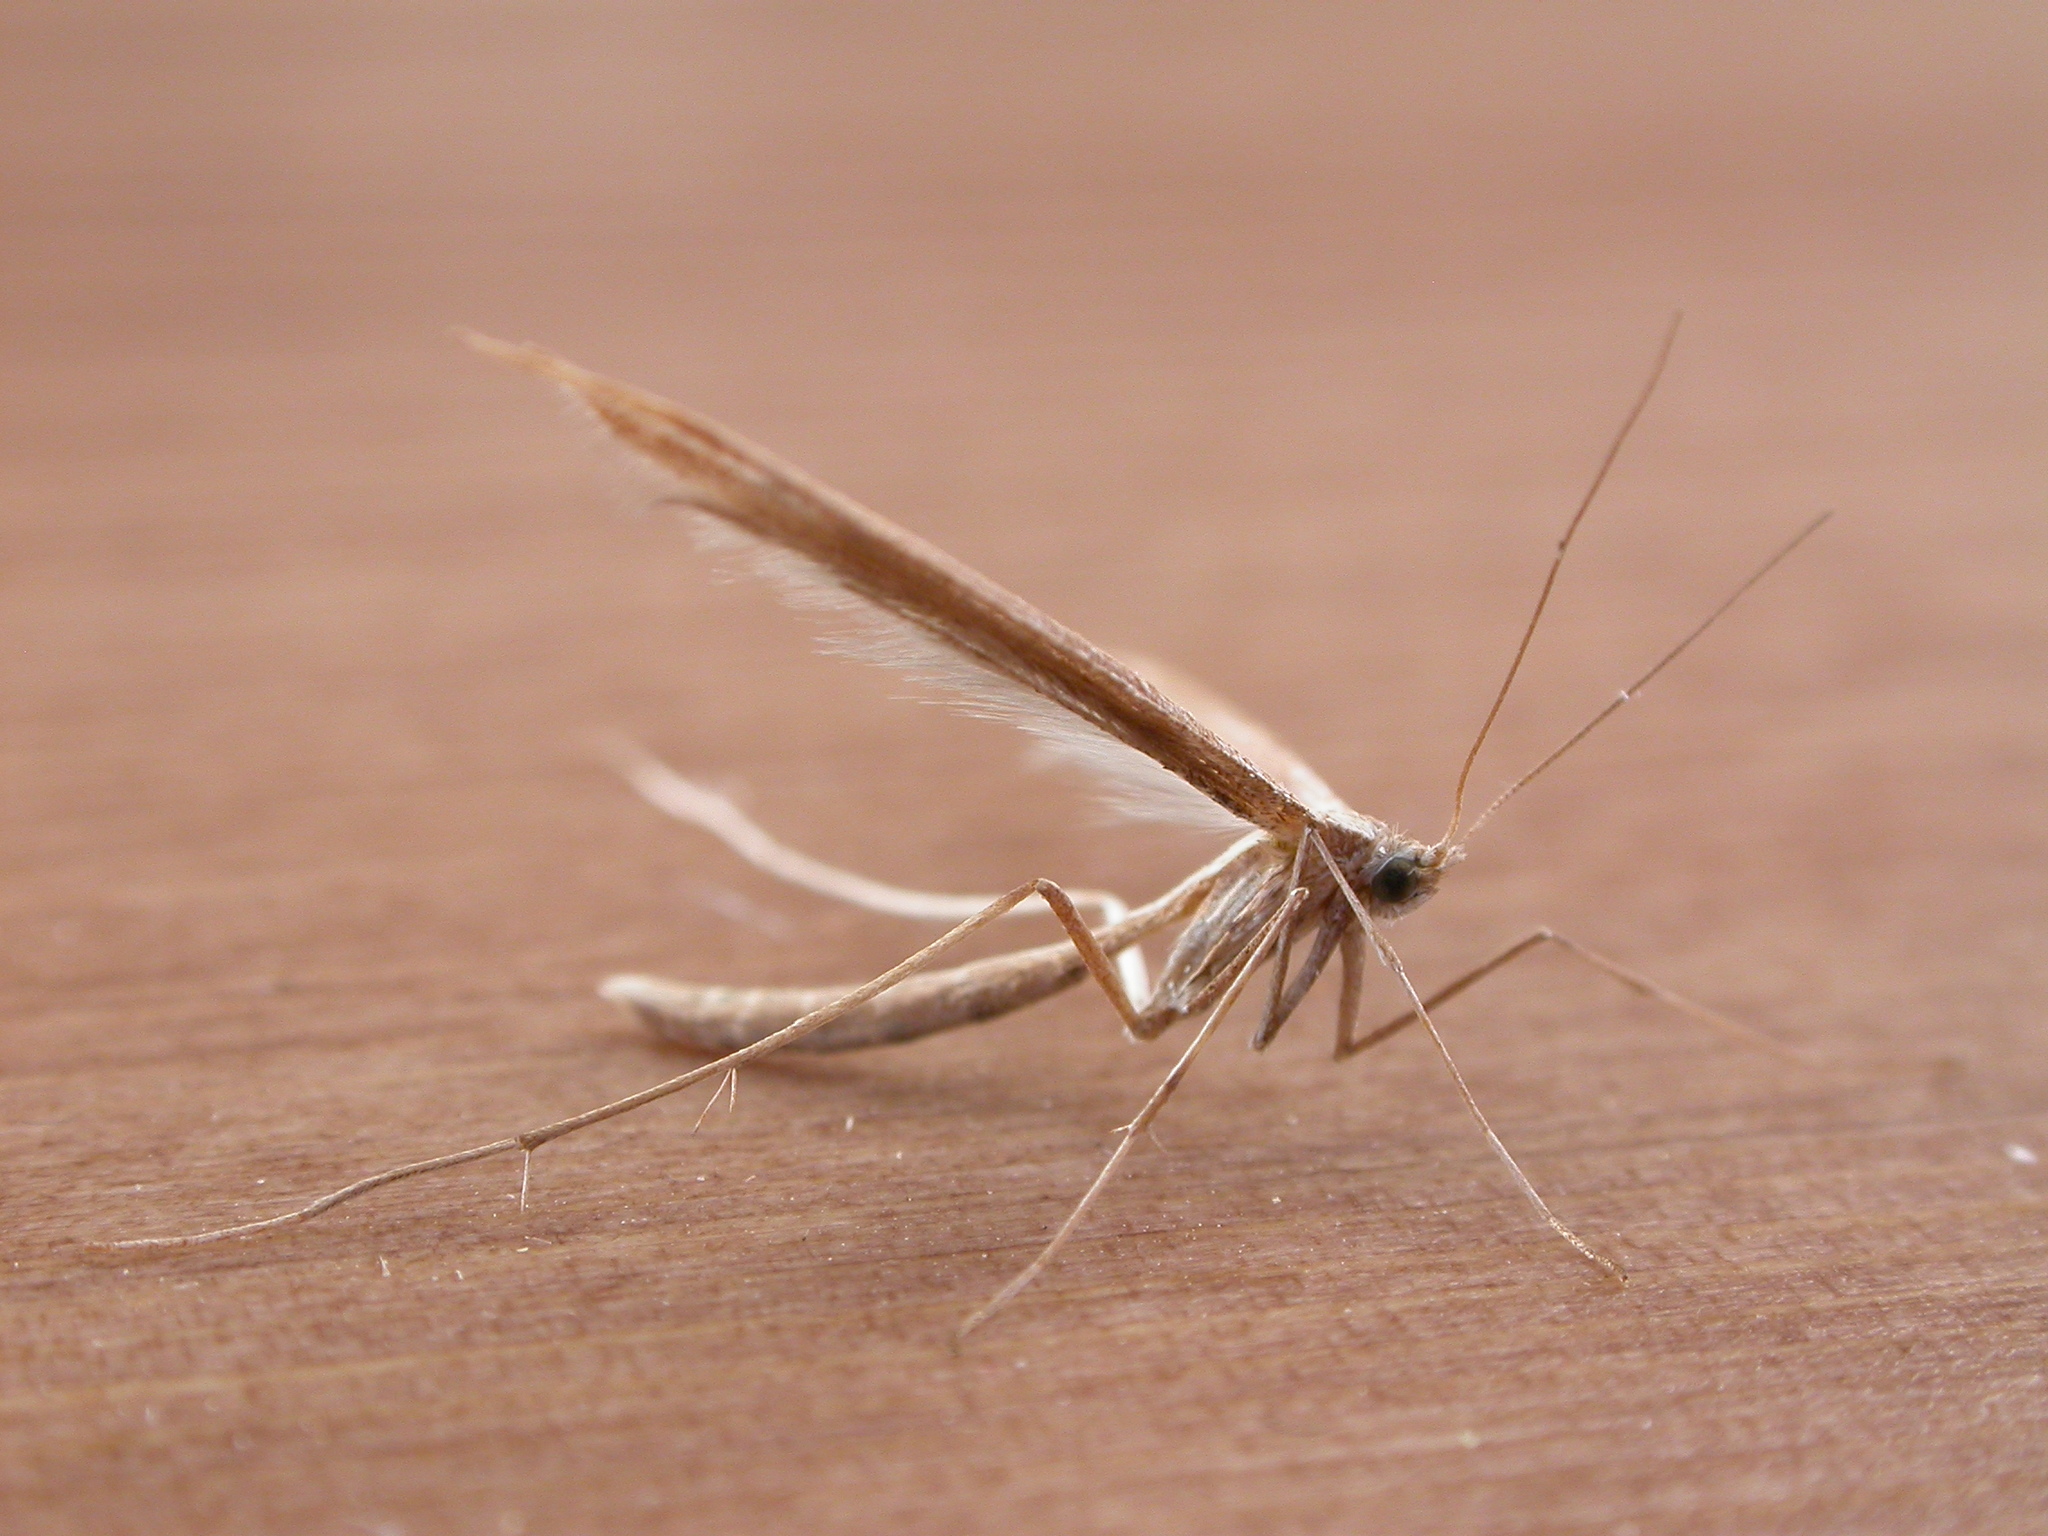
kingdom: Animalia
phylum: Arthropoda
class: Insecta
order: Lepidoptera
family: Pterophoridae
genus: Emmelina
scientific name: Emmelina monodactyla
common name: Common plume
